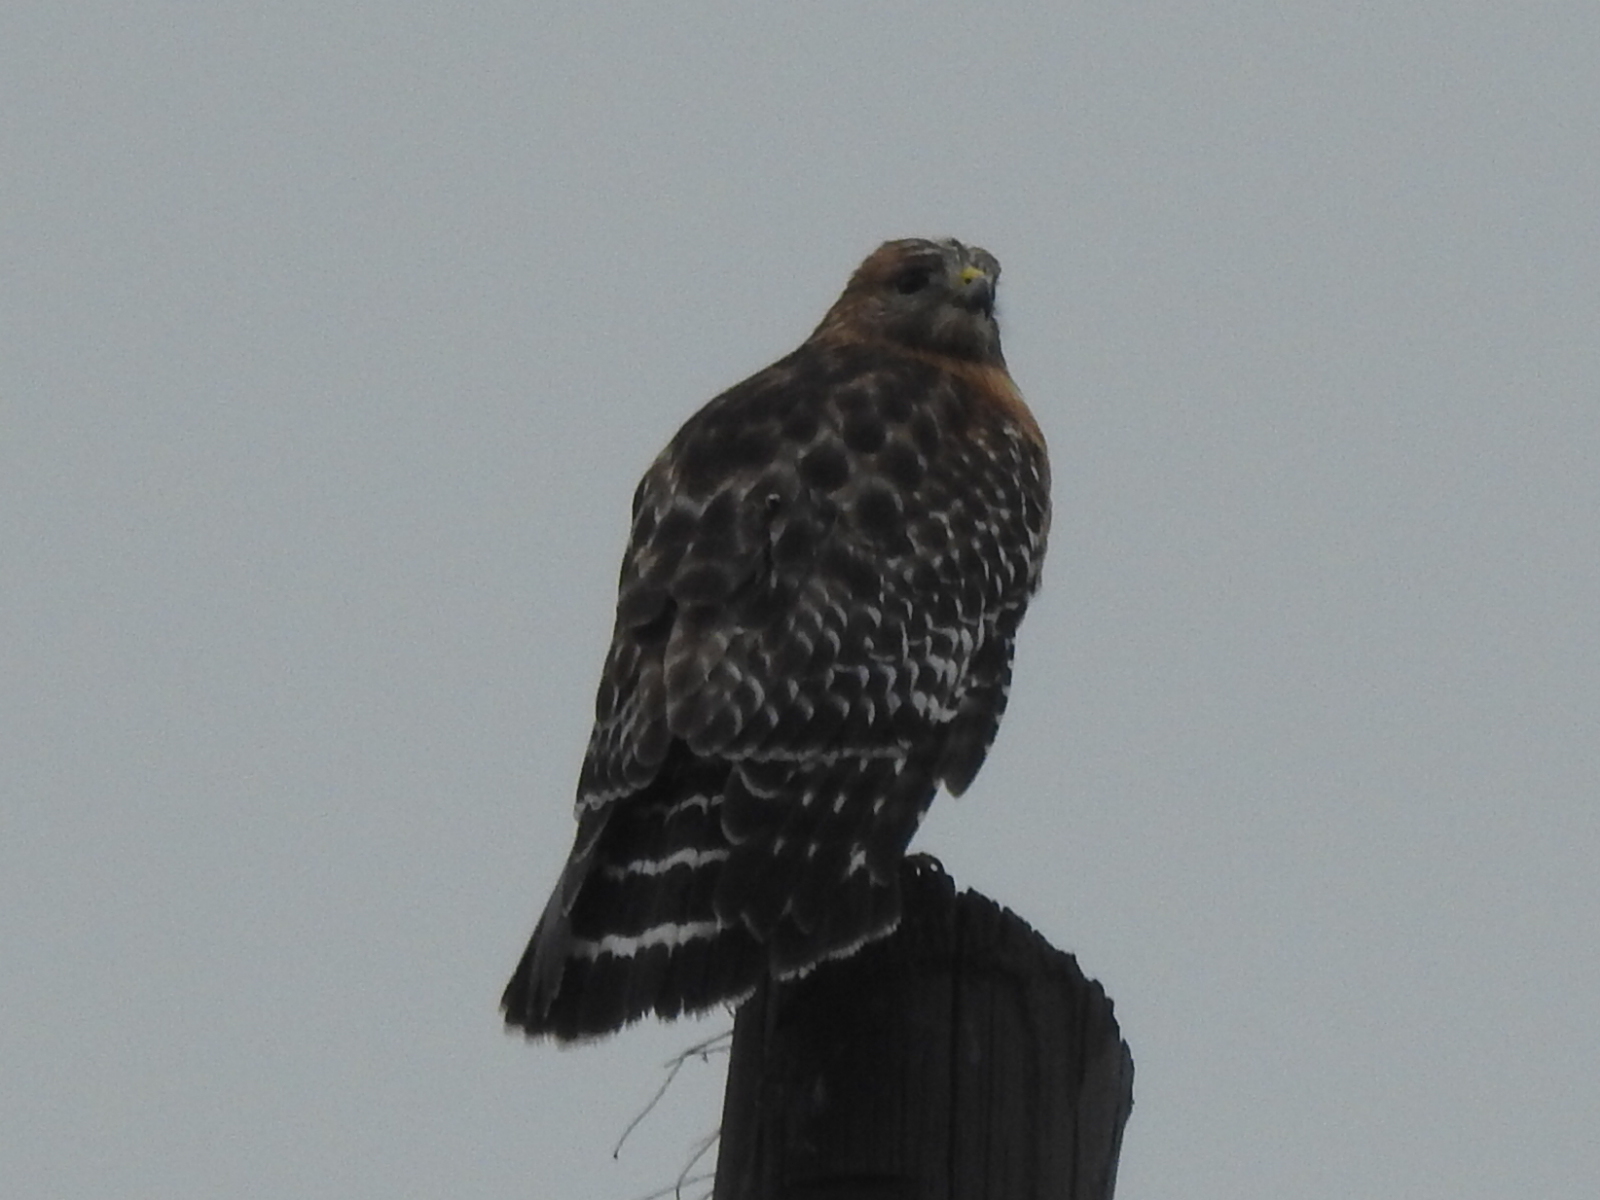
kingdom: Animalia
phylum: Chordata
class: Aves
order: Accipitriformes
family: Accipitridae
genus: Buteo
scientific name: Buteo lineatus
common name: Red-shouldered hawk
